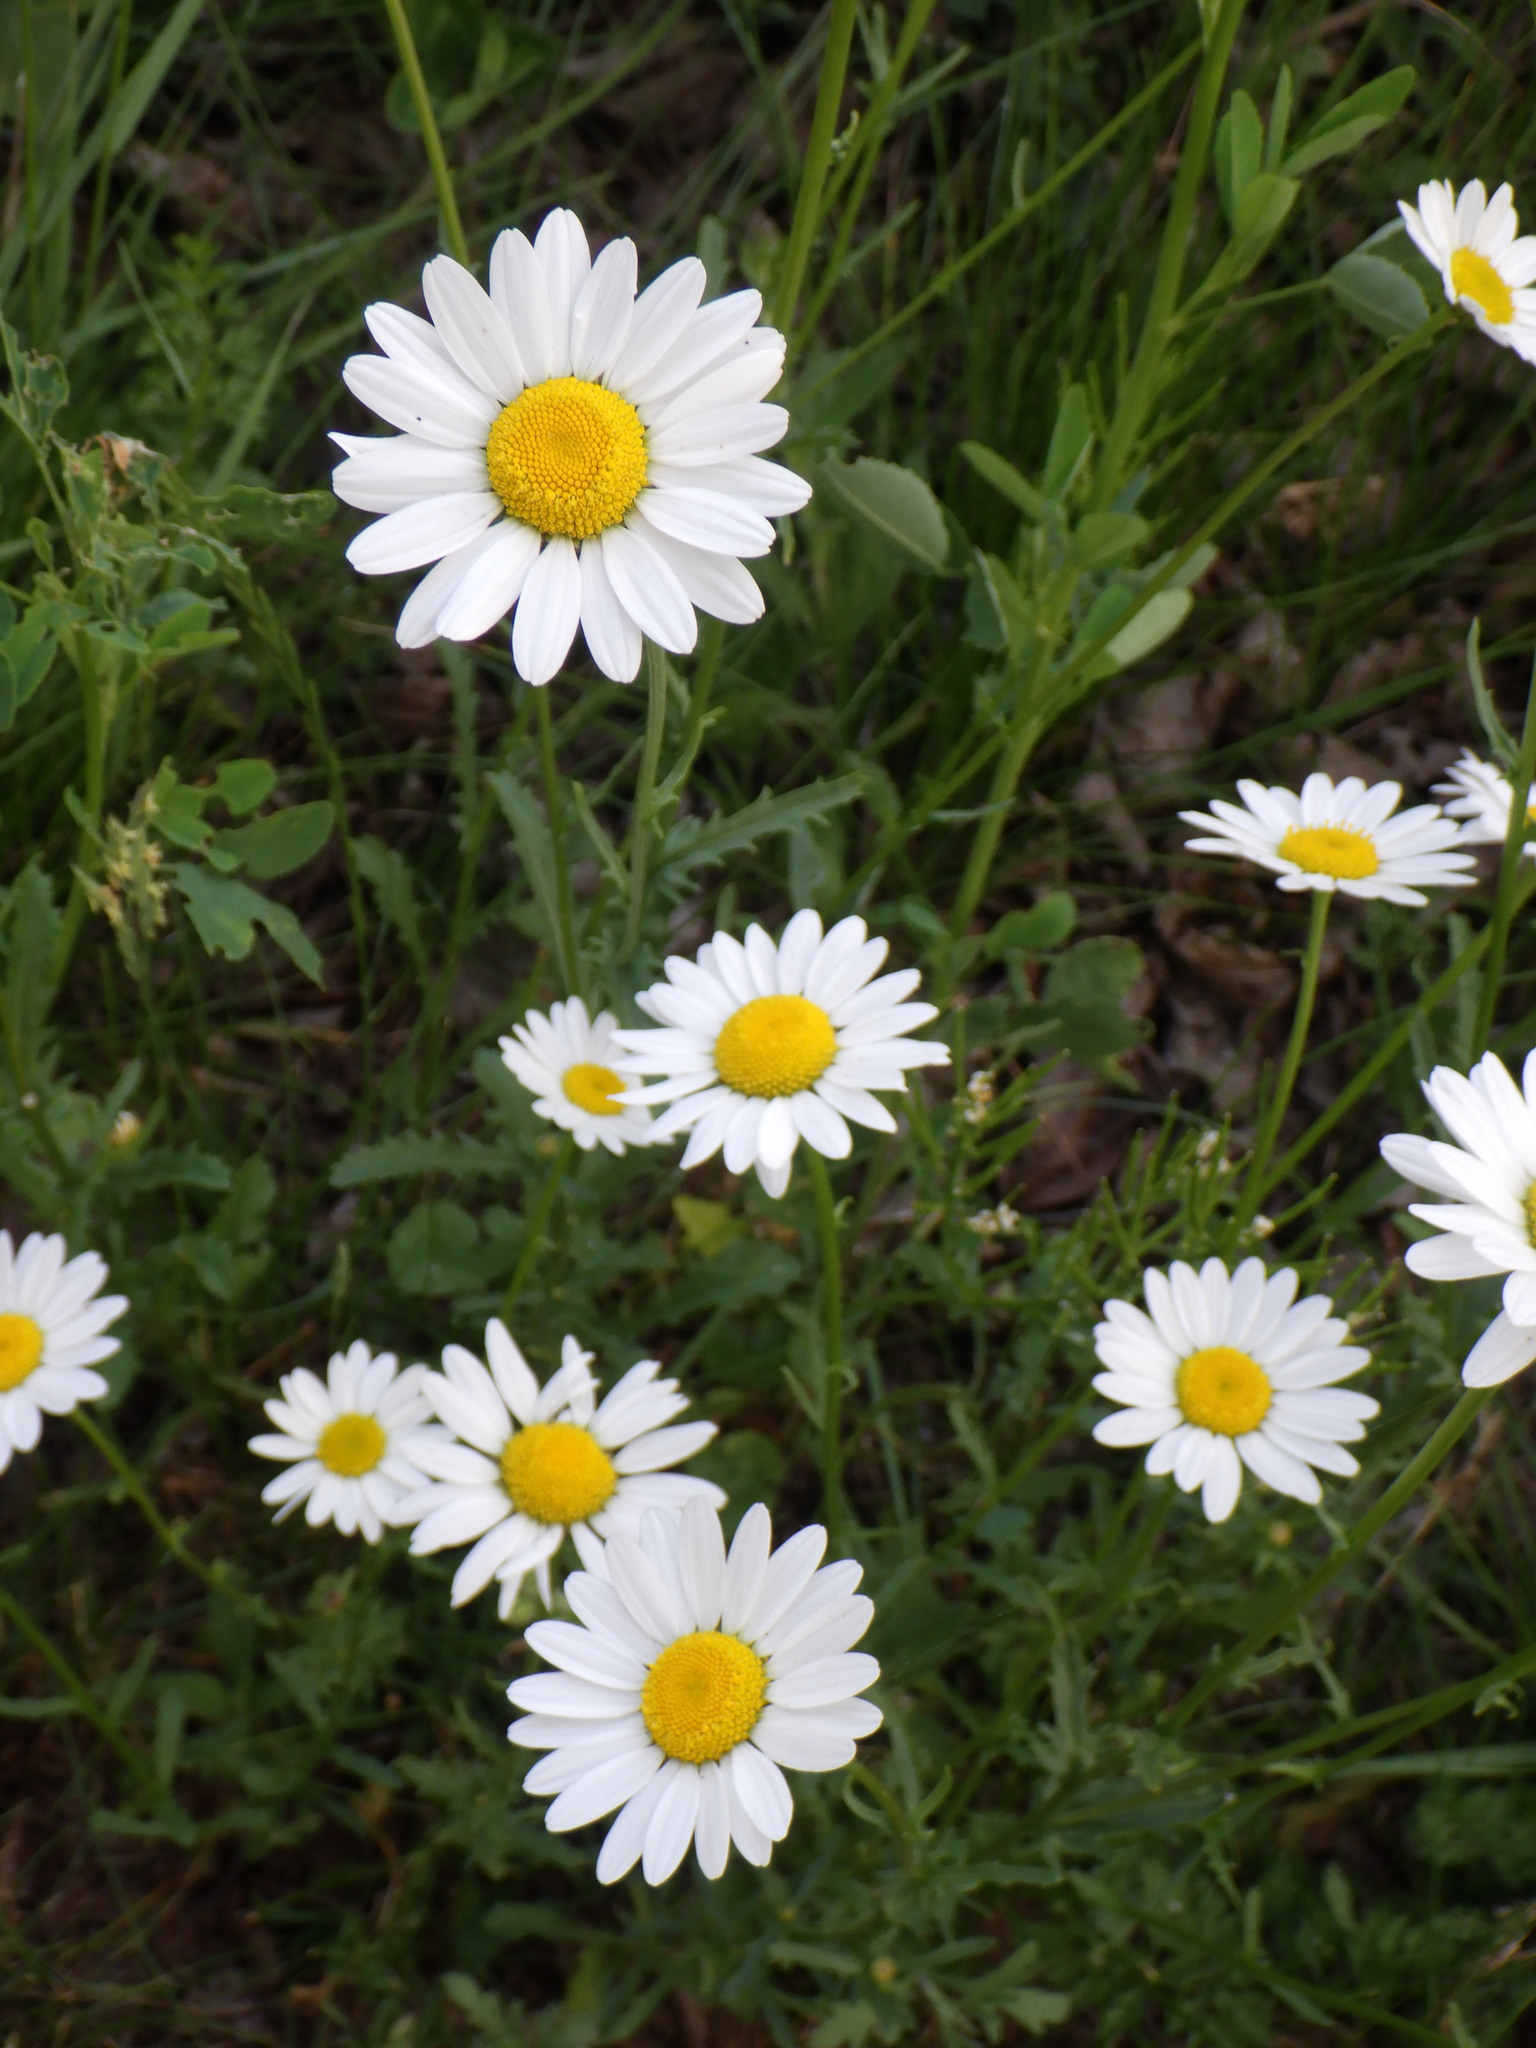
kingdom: Plantae
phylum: Tracheophyta
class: Magnoliopsida
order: Asterales
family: Asteraceae
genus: Leucanthemum
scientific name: Leucanthemum vulgare
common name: Oxeye daisy
